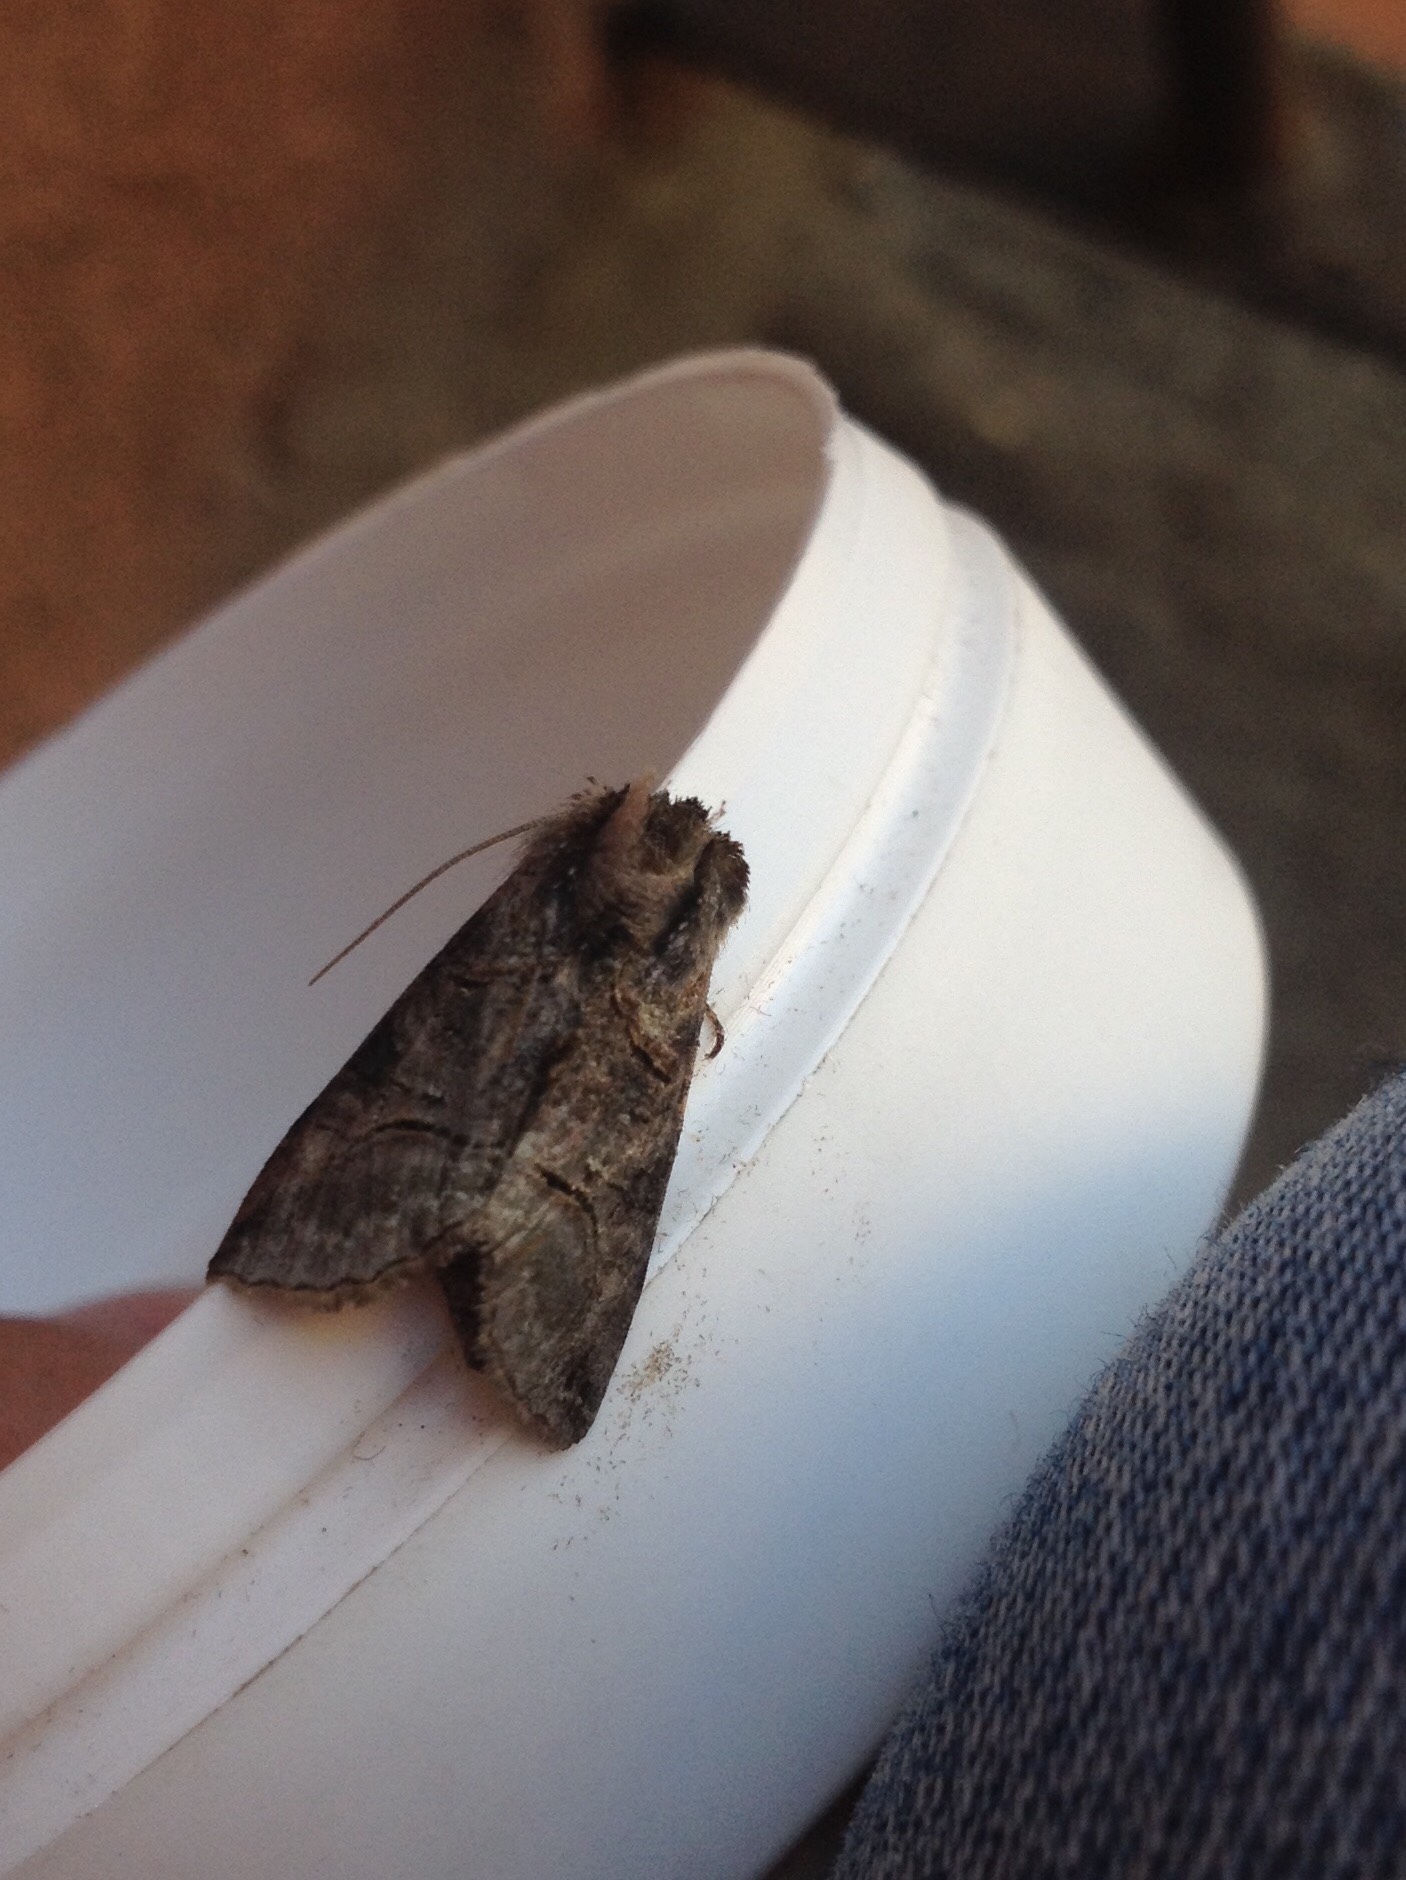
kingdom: Animalia
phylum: Arthropoda
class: Insecta
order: Lepidoptera
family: Noctuidae
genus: Abrostola
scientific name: Abrostola tripartita
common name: Spectacle
